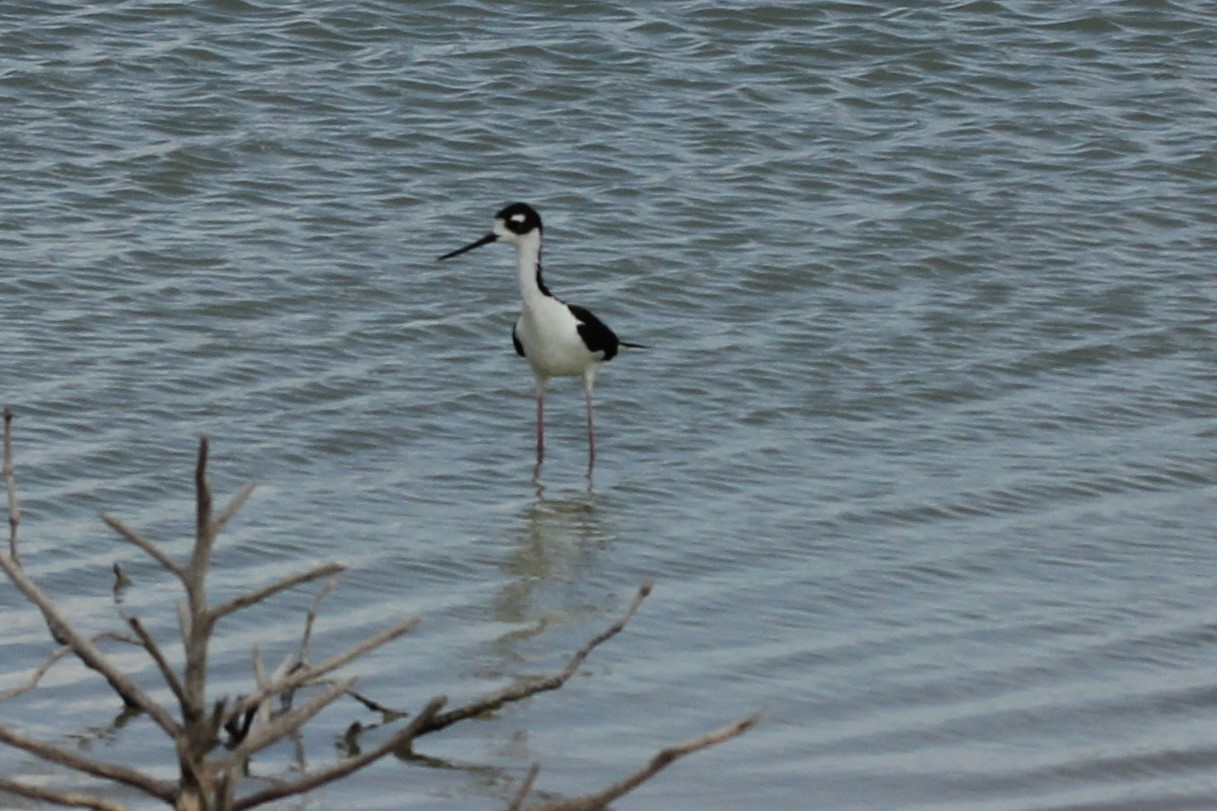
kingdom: Animalia
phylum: Chordata
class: Aves
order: Charadriiformes
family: Recurvirostridae
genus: Himantopus
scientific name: Himantopus mexicanus
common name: Black-necked stilt
